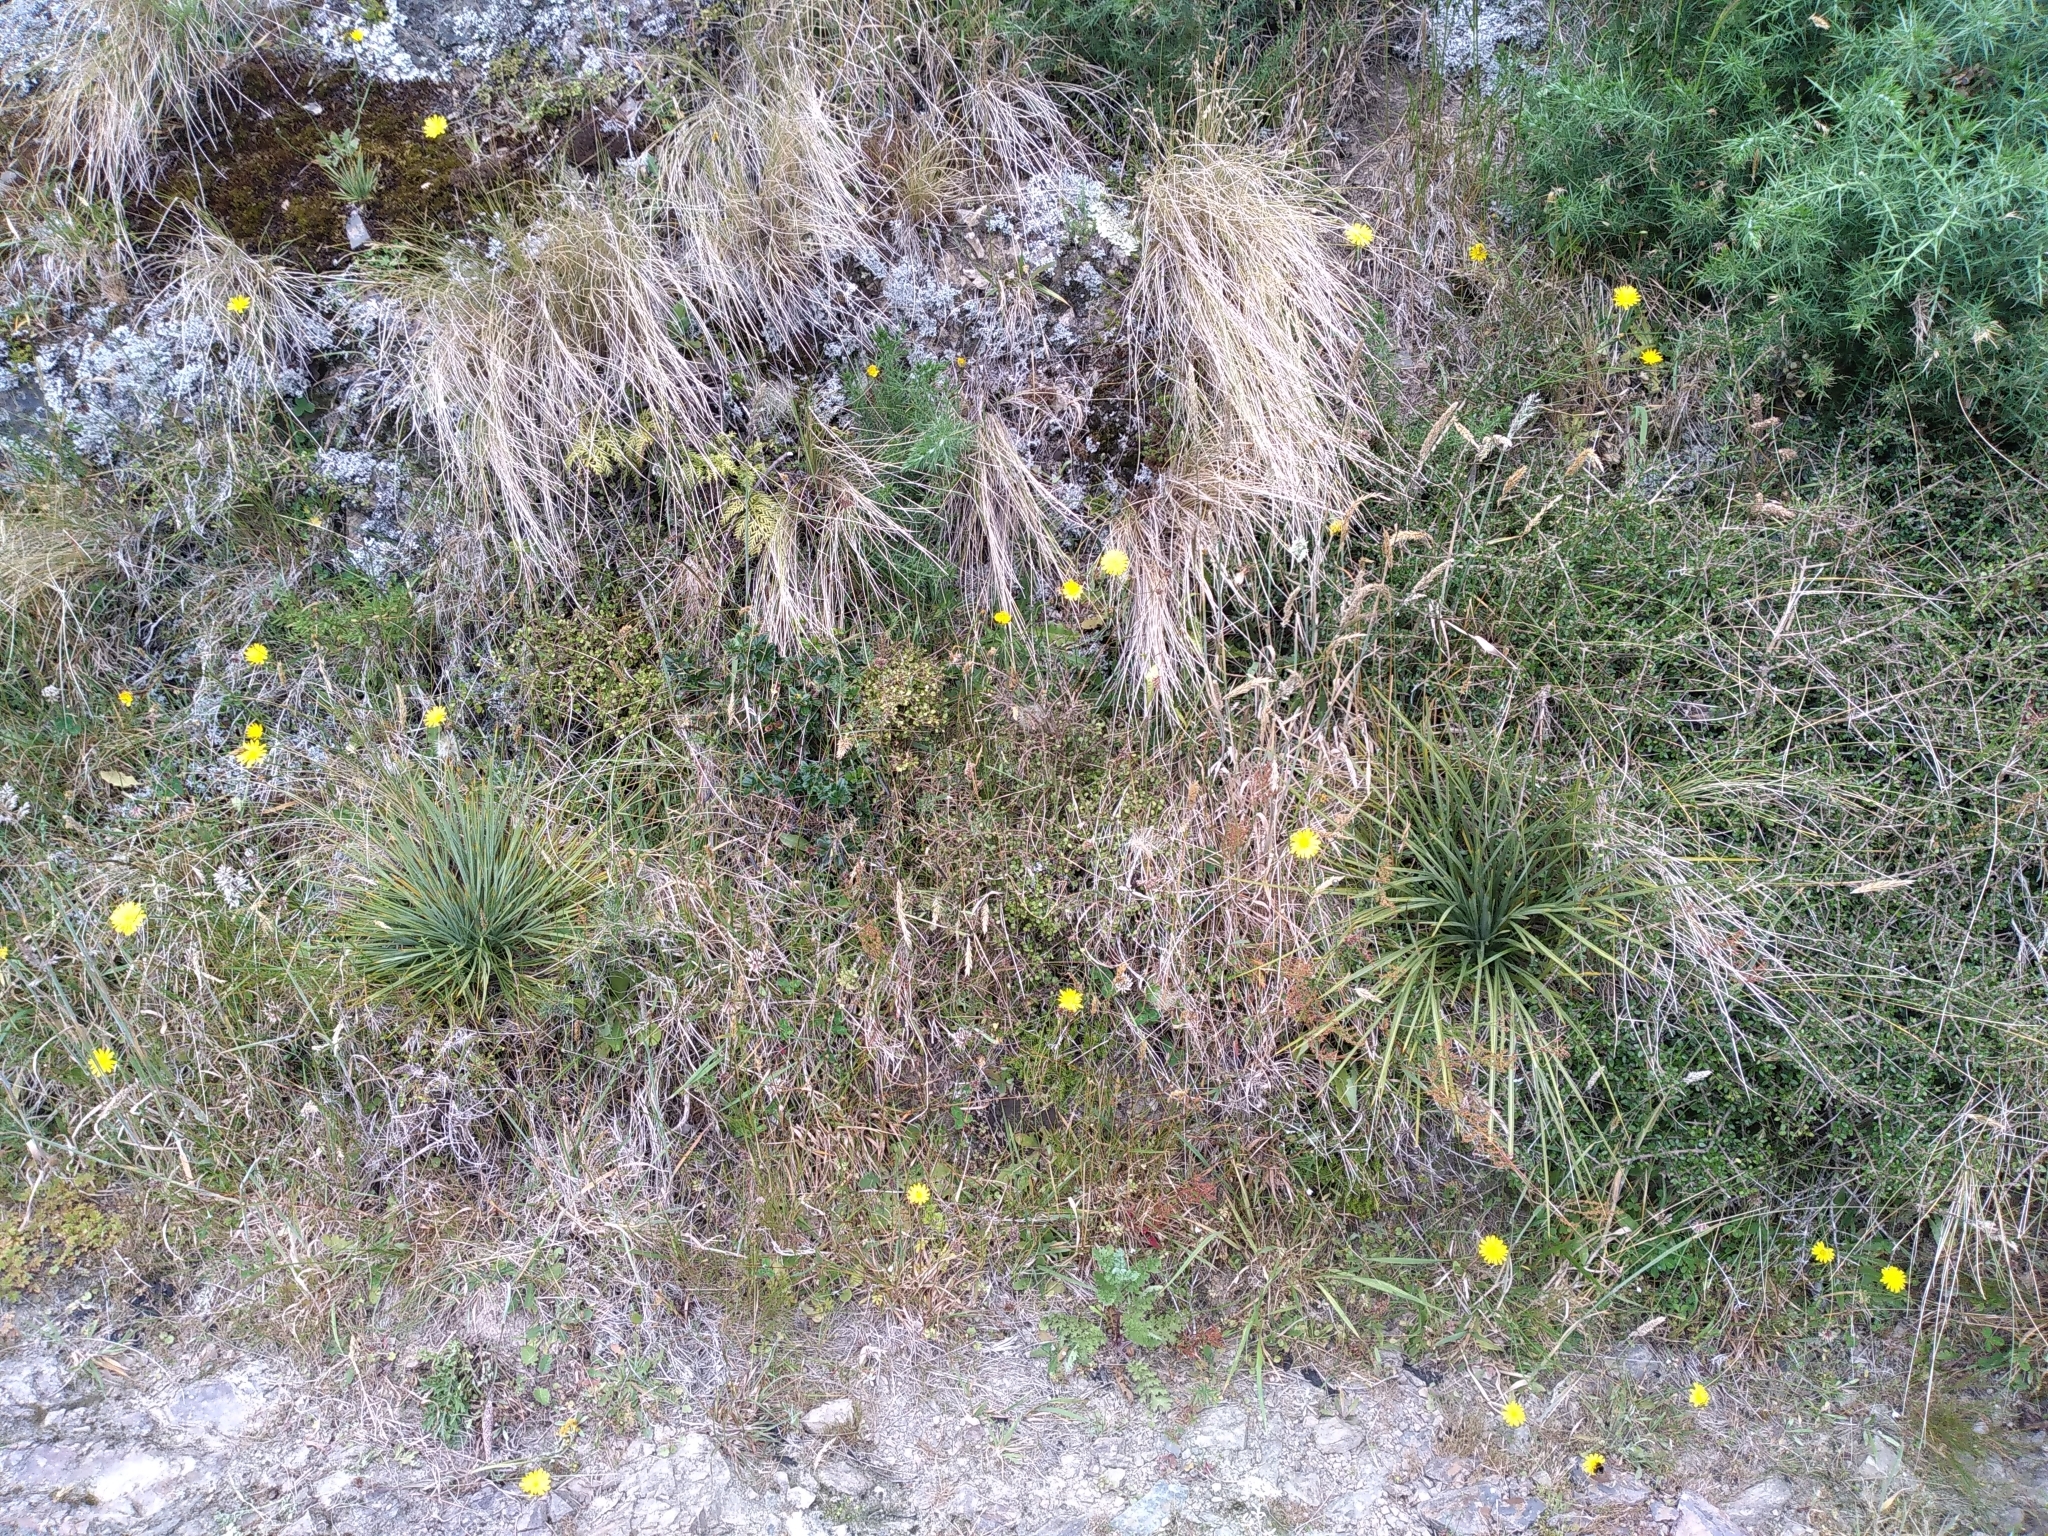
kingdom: Plantae
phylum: Tracheophyta
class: Magnoliopsida
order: Apiales
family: Apiaceae
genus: Aciphylla
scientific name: Aciphylla squarrosa
